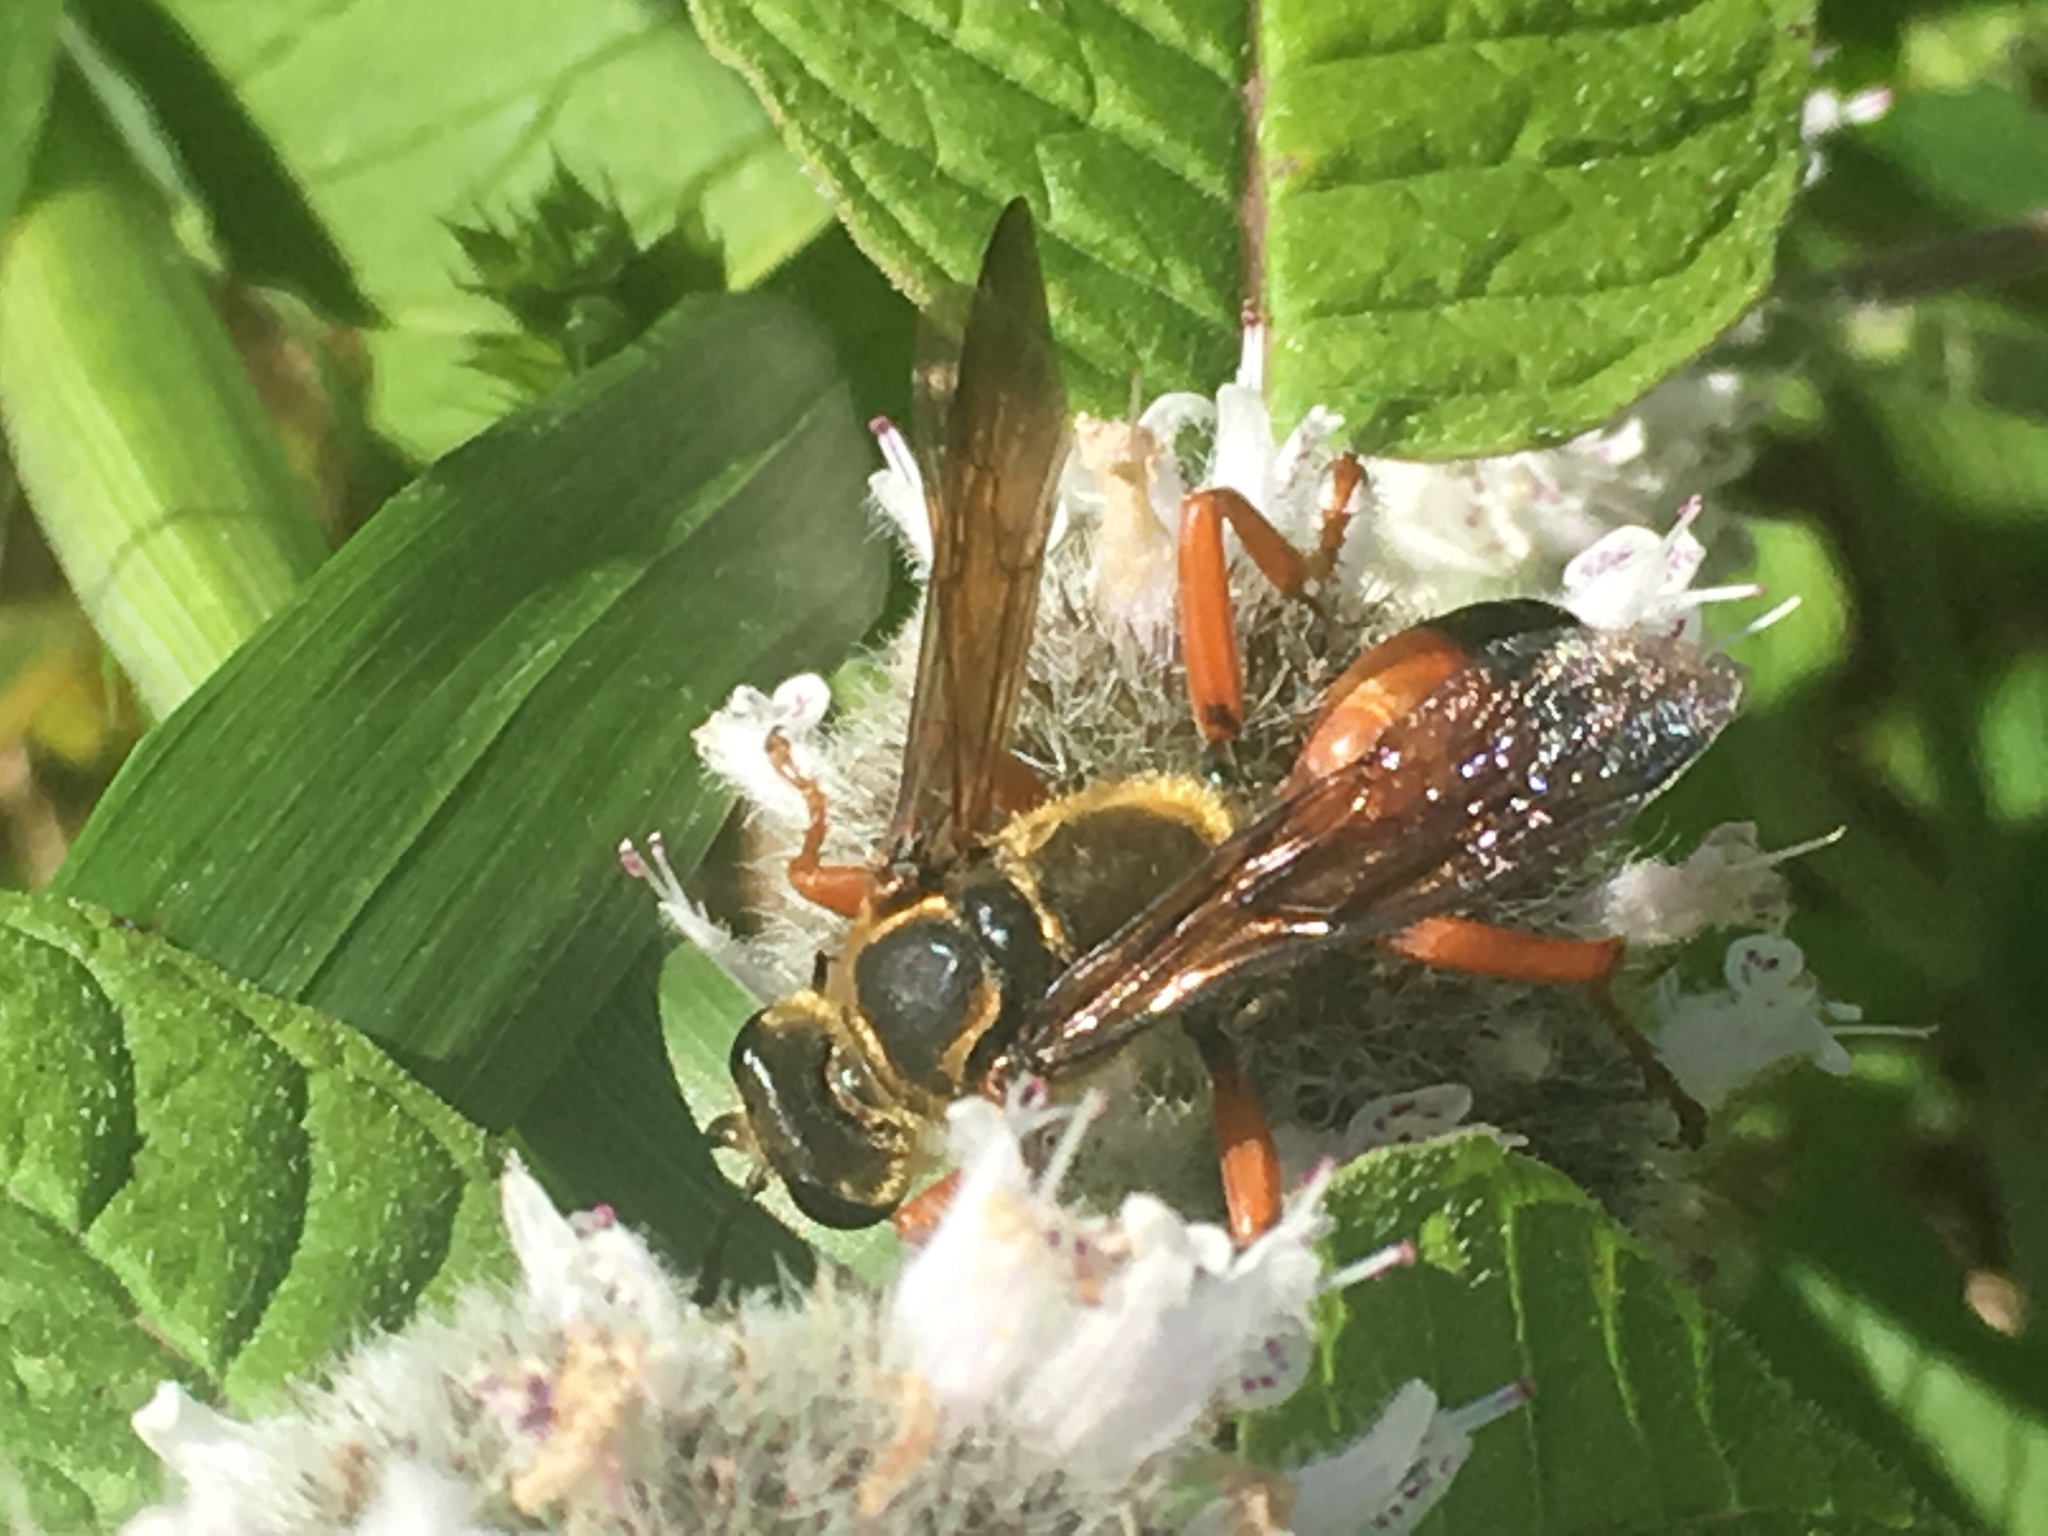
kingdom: Animalia
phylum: Arthropoda
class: Insecta
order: Hymenoptera
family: Sphecidae
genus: Sphex
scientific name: Sphex ichneumoneus
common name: Great golden digger wasp
